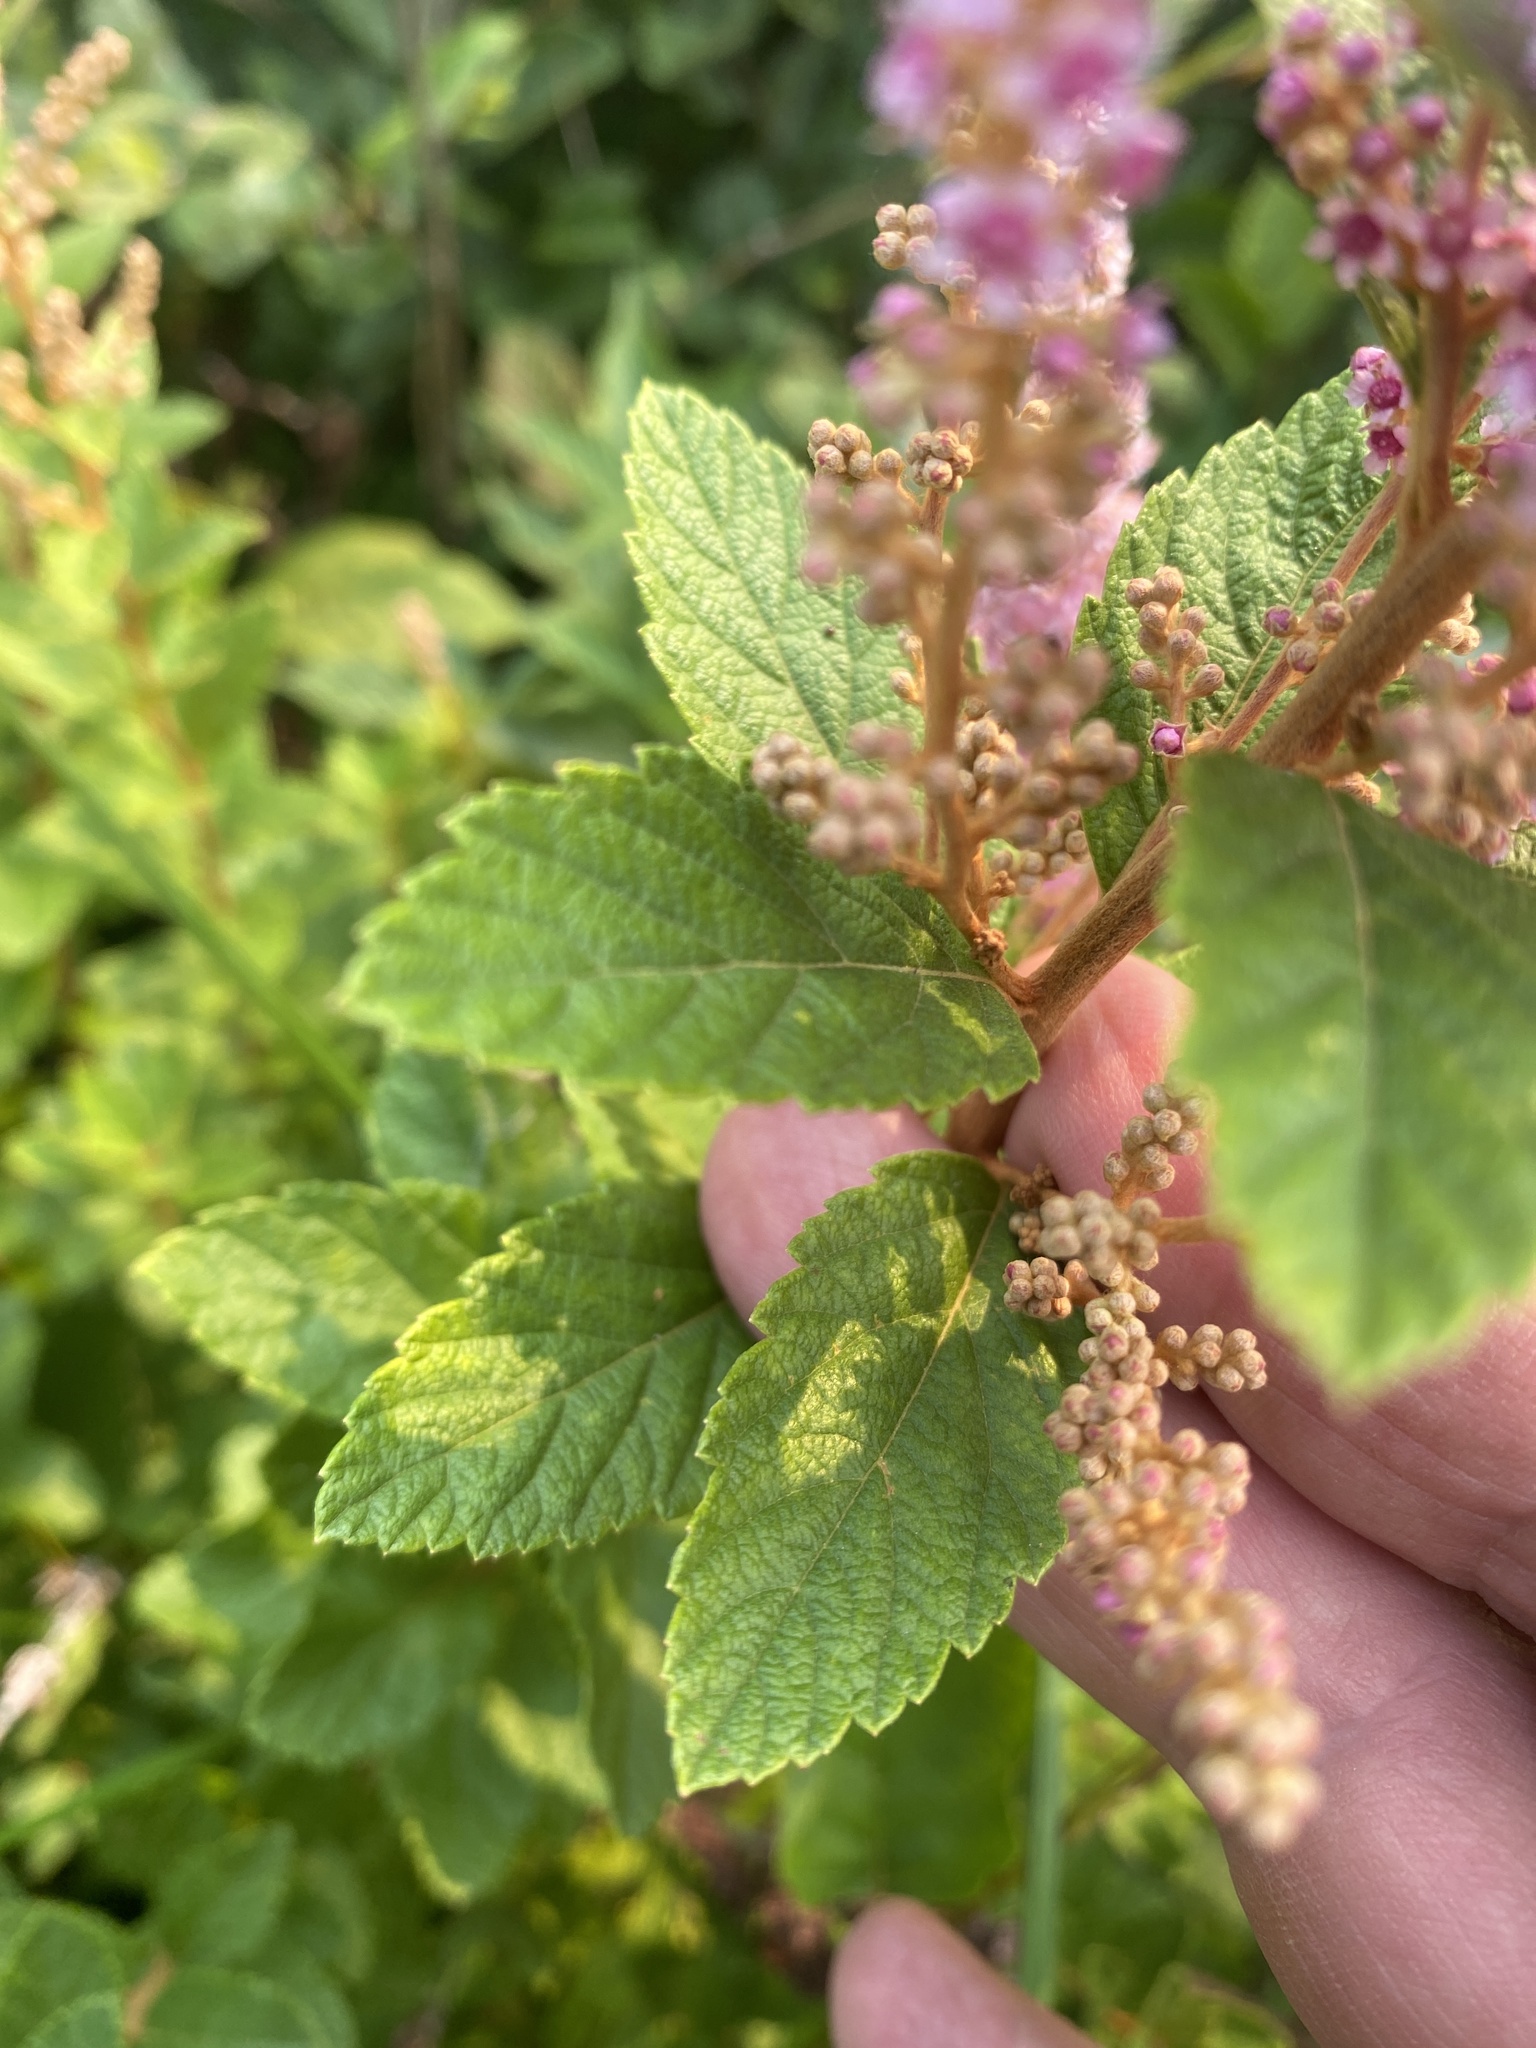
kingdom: Plantae
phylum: Tracheophyta
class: Magnoliopsida
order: Rosales
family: Rosaceae
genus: Spiraea
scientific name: Spiraea tomentosa
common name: Hardhack
